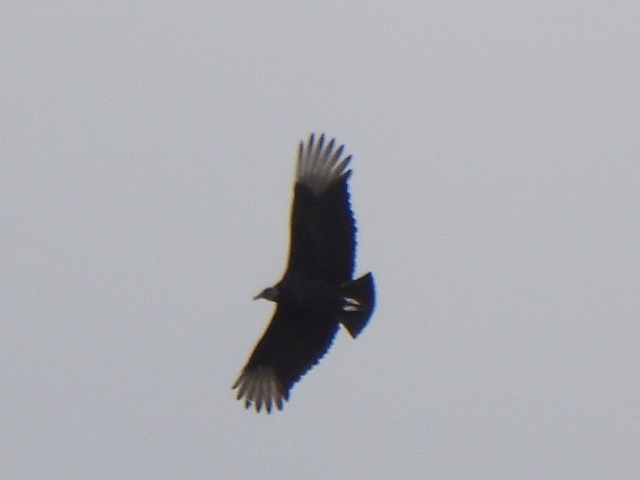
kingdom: Animalia
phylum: Chordata
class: Aves
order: Accipitriformes
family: Cathartidae
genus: Coragyps
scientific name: Coragyps atratus
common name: Black vulture
